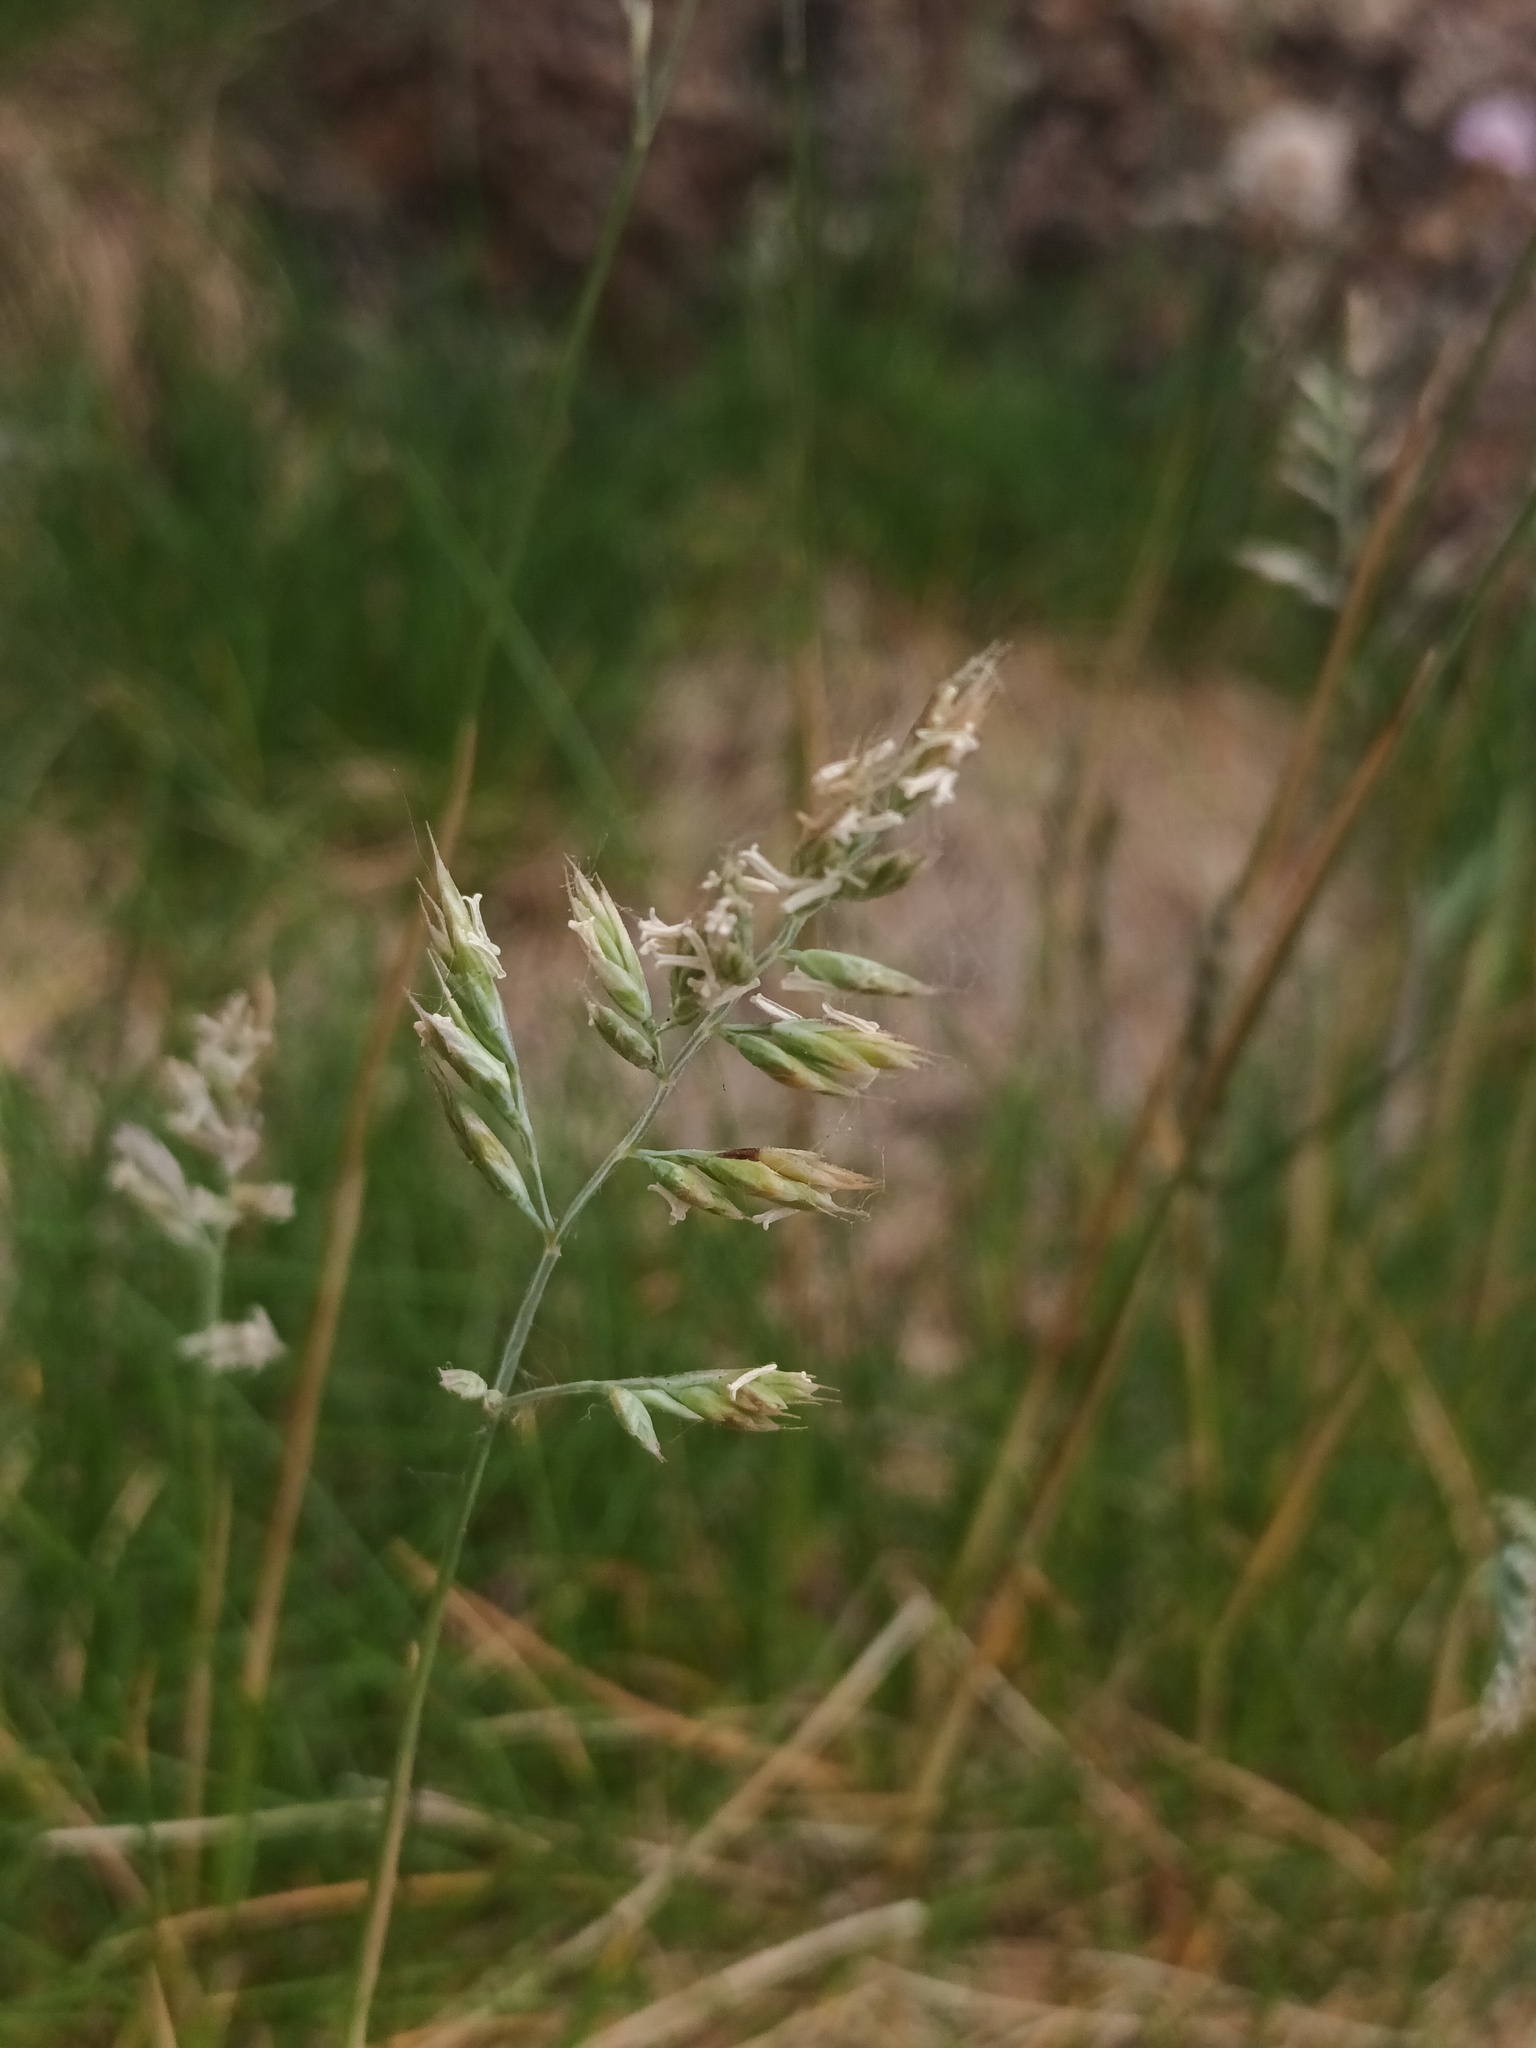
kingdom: Plantae
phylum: Tracheophyta
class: Liliopsida
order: Poales
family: Poaceae
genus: Holcus
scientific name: Holcus lanatus
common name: Yorkshire-fog
